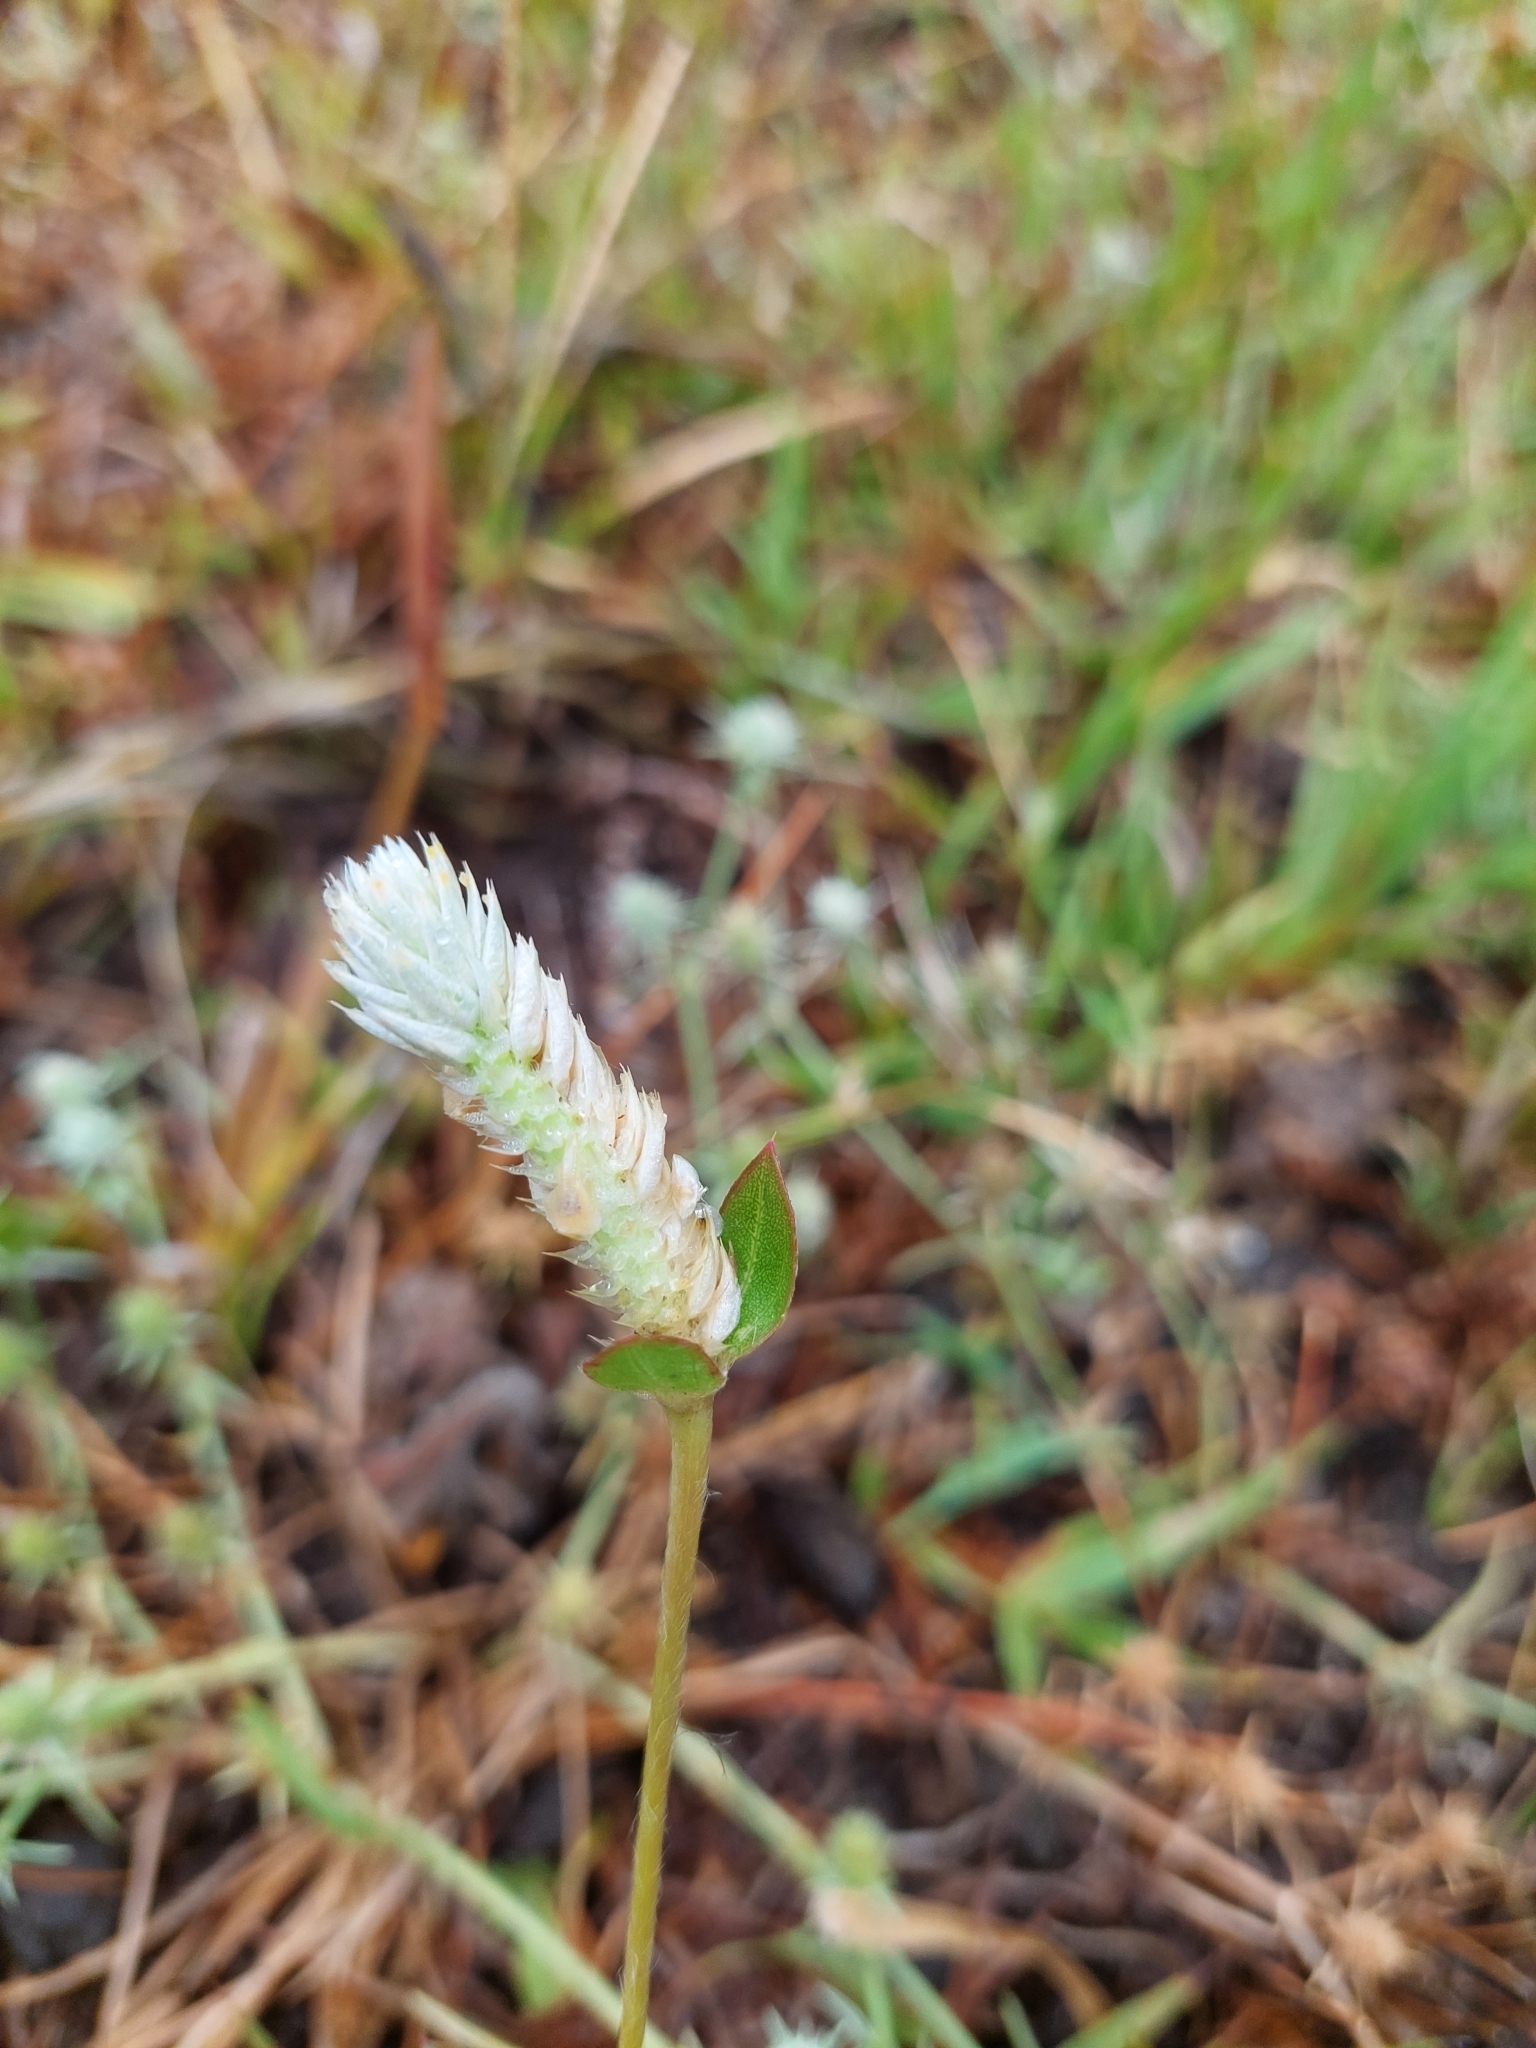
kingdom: Plantae
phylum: Tracheophyta
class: Magnoliopsida
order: Caryophyllales
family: Amaranthaceae
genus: Gomphrena
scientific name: Gomphrena celosioides
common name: Gomphrena-weed
